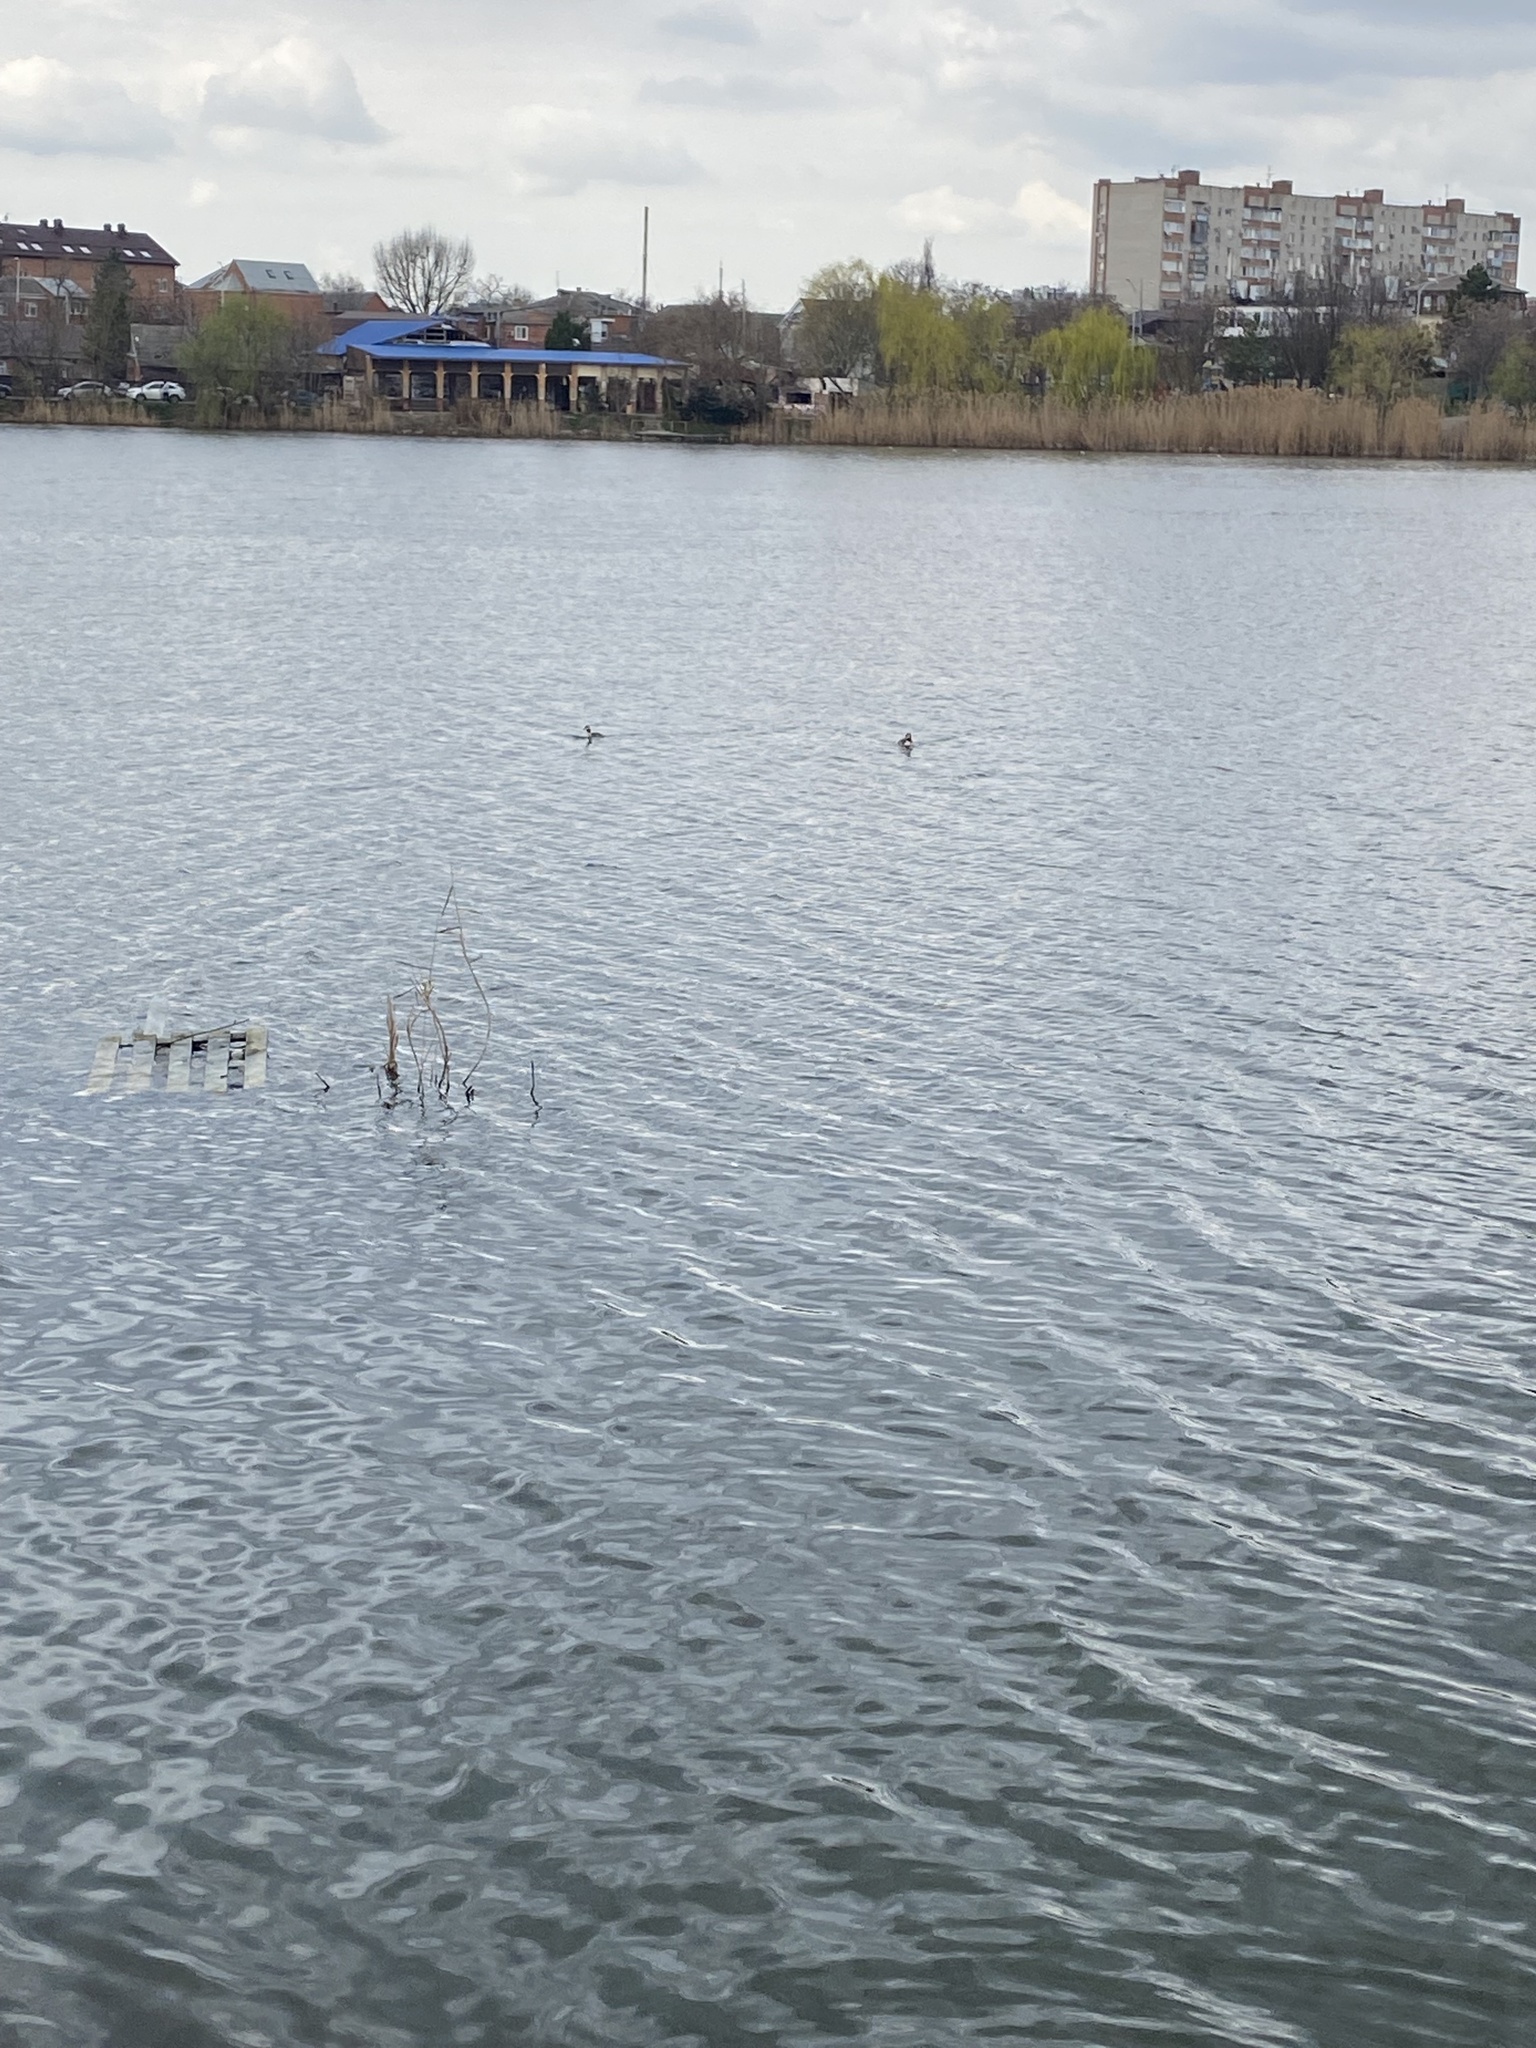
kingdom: Animalia
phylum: Chordata
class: Aves
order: Podicipediformes
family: Podicipedidae
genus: Podiceps
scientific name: Podiceps cristatus
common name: Great crested grebe
